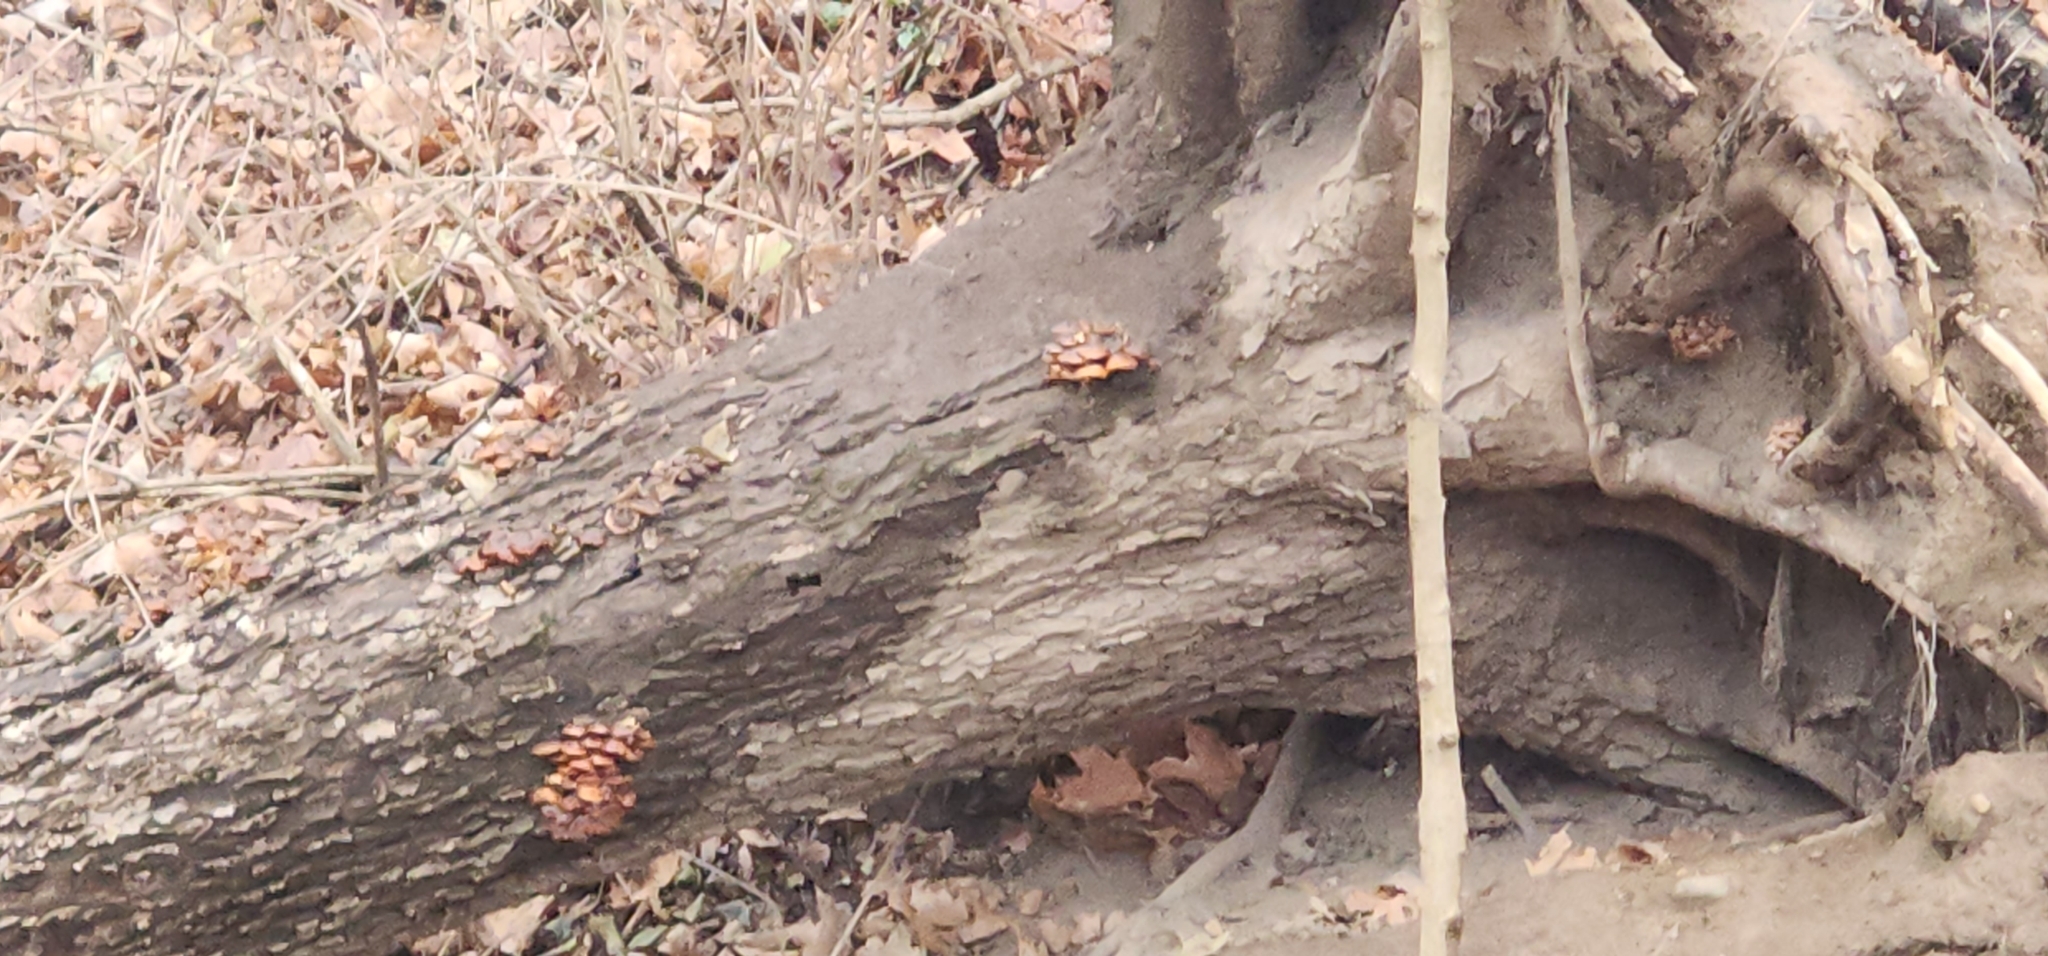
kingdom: Fungi
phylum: Basidiomycota
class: Agaricomycetes
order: Agaricales
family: Physalacriaceae
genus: Flammulina
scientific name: Flammulina velutipes
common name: Velvet shank
